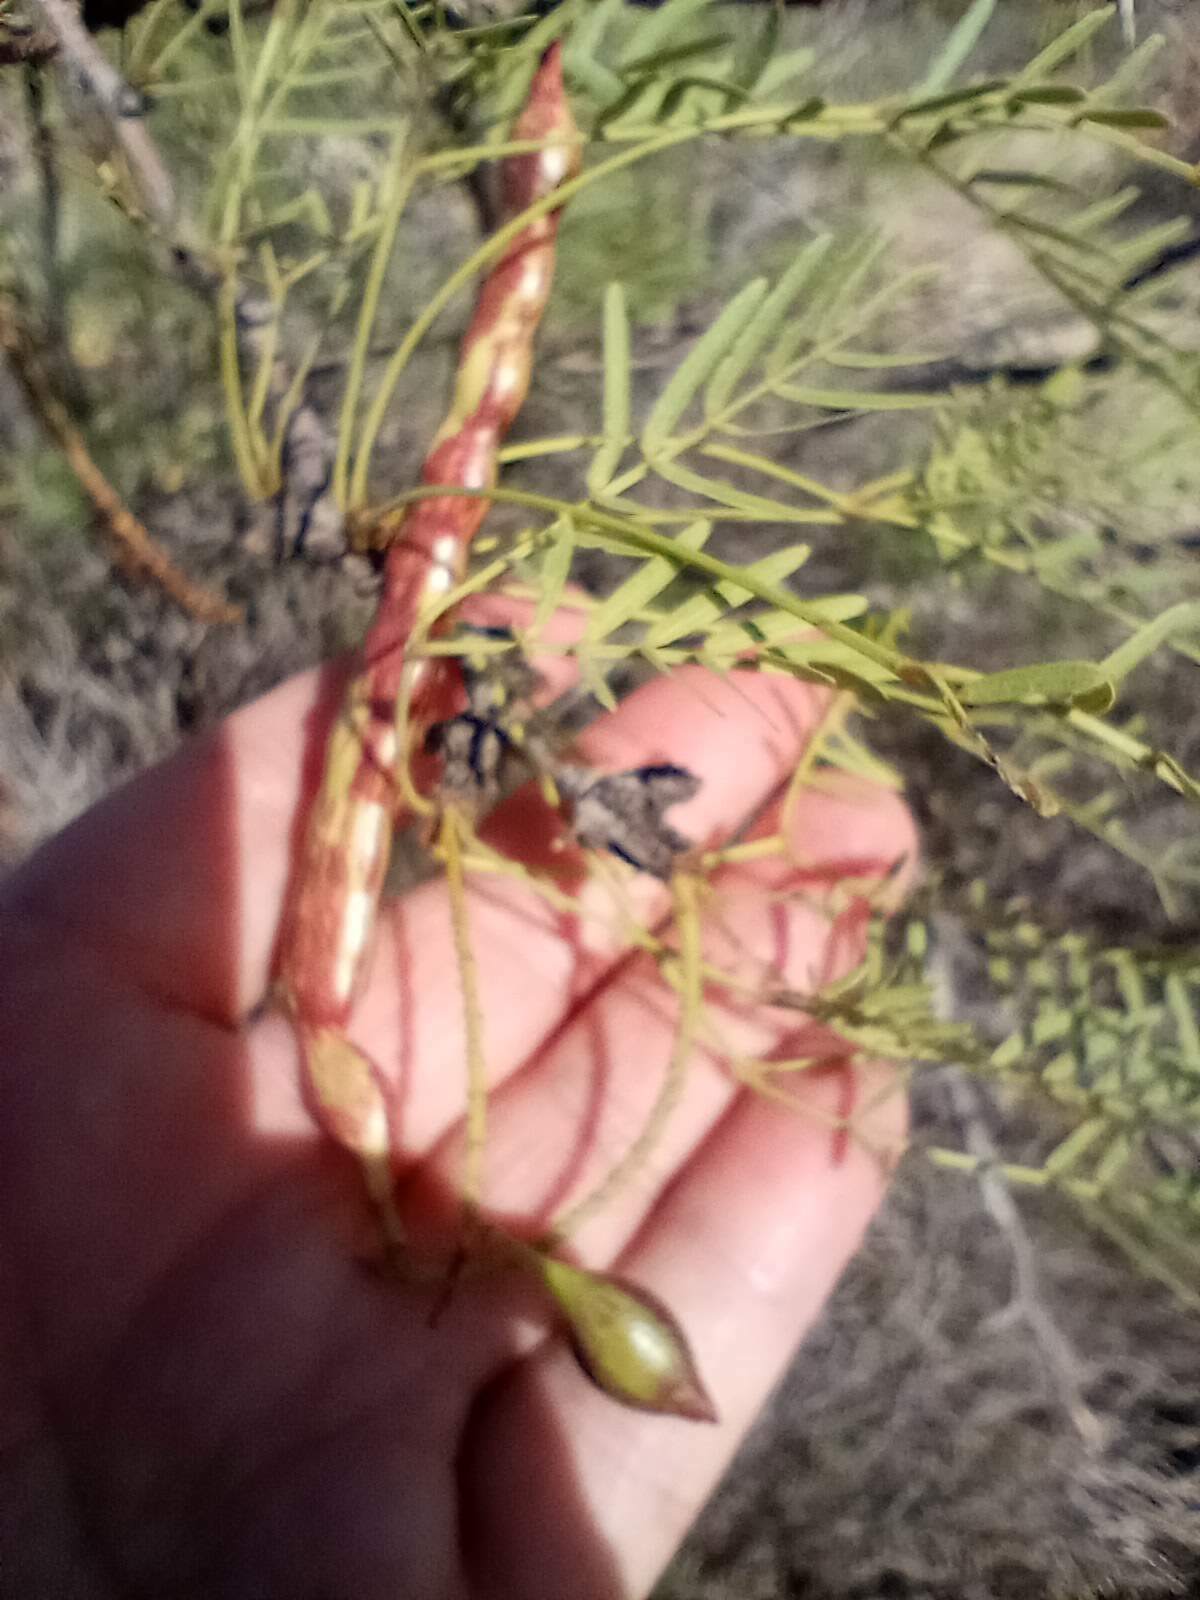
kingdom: Plantae
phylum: Tracheophyta
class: Magnoliopsida
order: Fabales
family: Fabaceae
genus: Prosopis
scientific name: Prosopis glandulosa
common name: Honey mesquite
